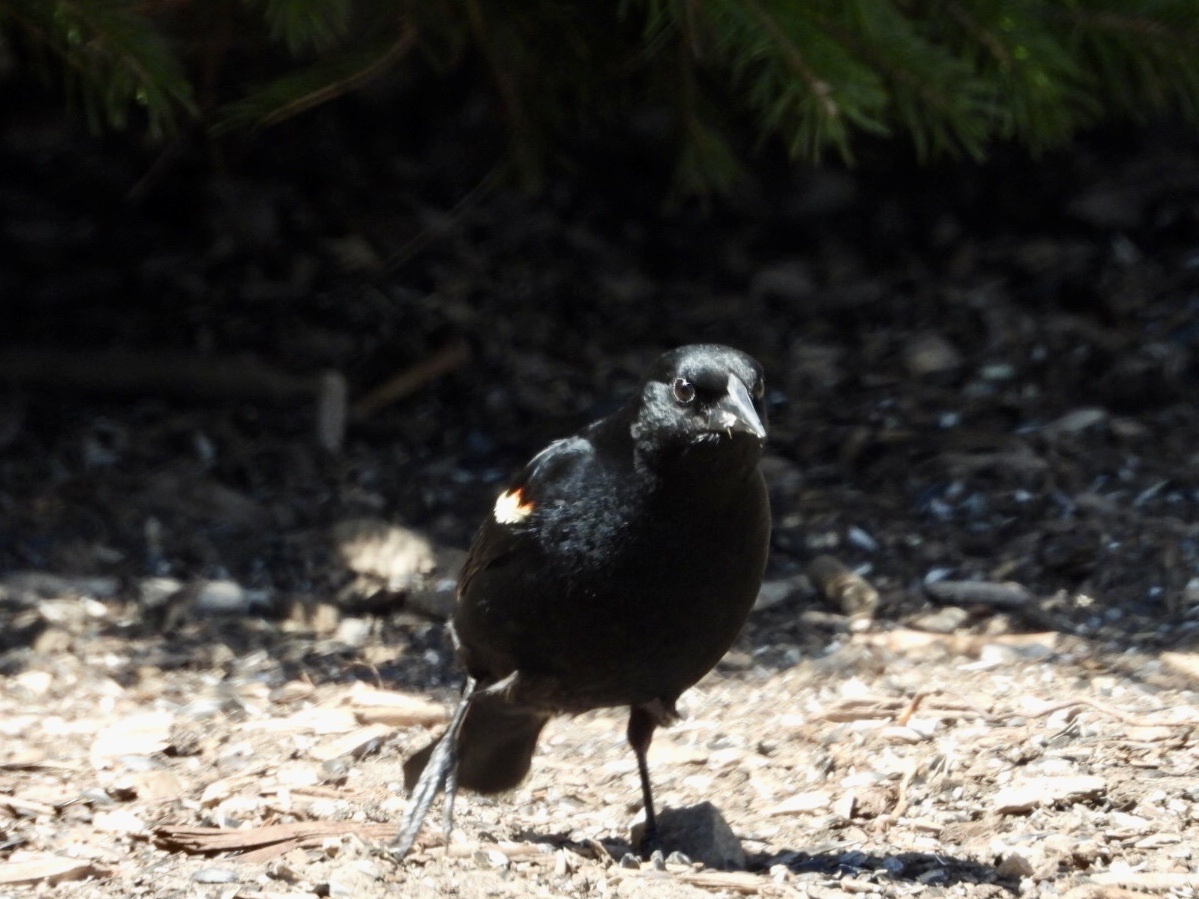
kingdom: Animalia
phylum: Chordata
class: Aves
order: Passeriformes
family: Icteridae
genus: Agelaius
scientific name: Agelaius phoeniceus
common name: Red-winged blackbird
